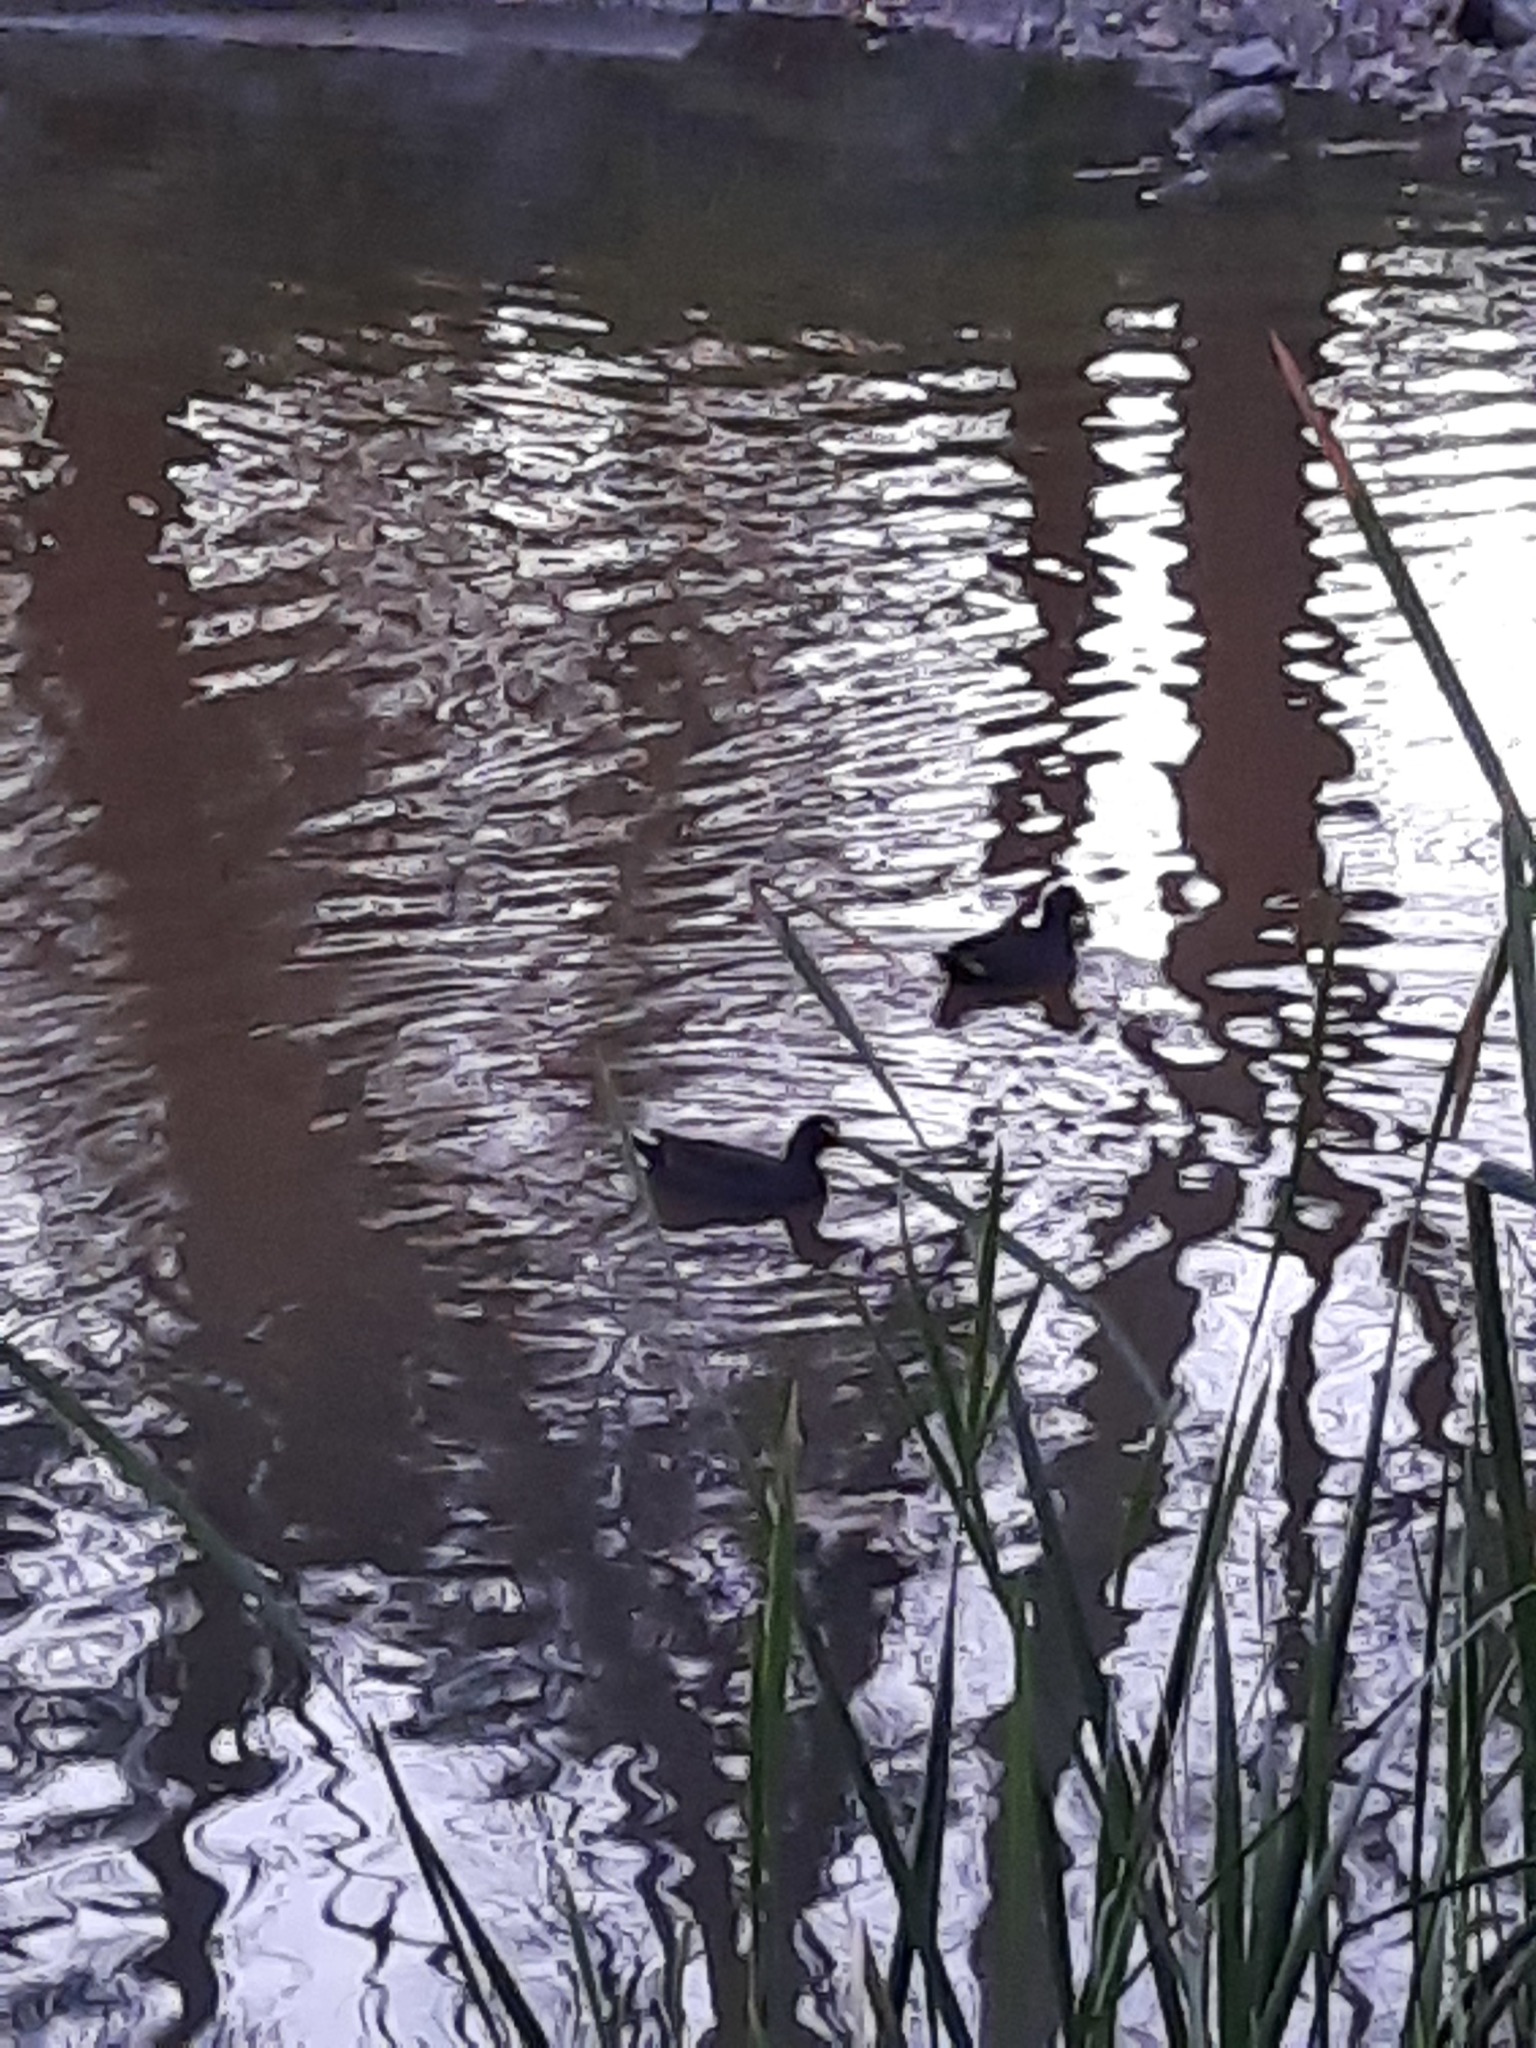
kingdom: Animalia
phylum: Chordata
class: Aves
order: Gruiformes
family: Rallidae
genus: Gallinula
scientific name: Gallinula tenebrosa
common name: Dusky moorhen
